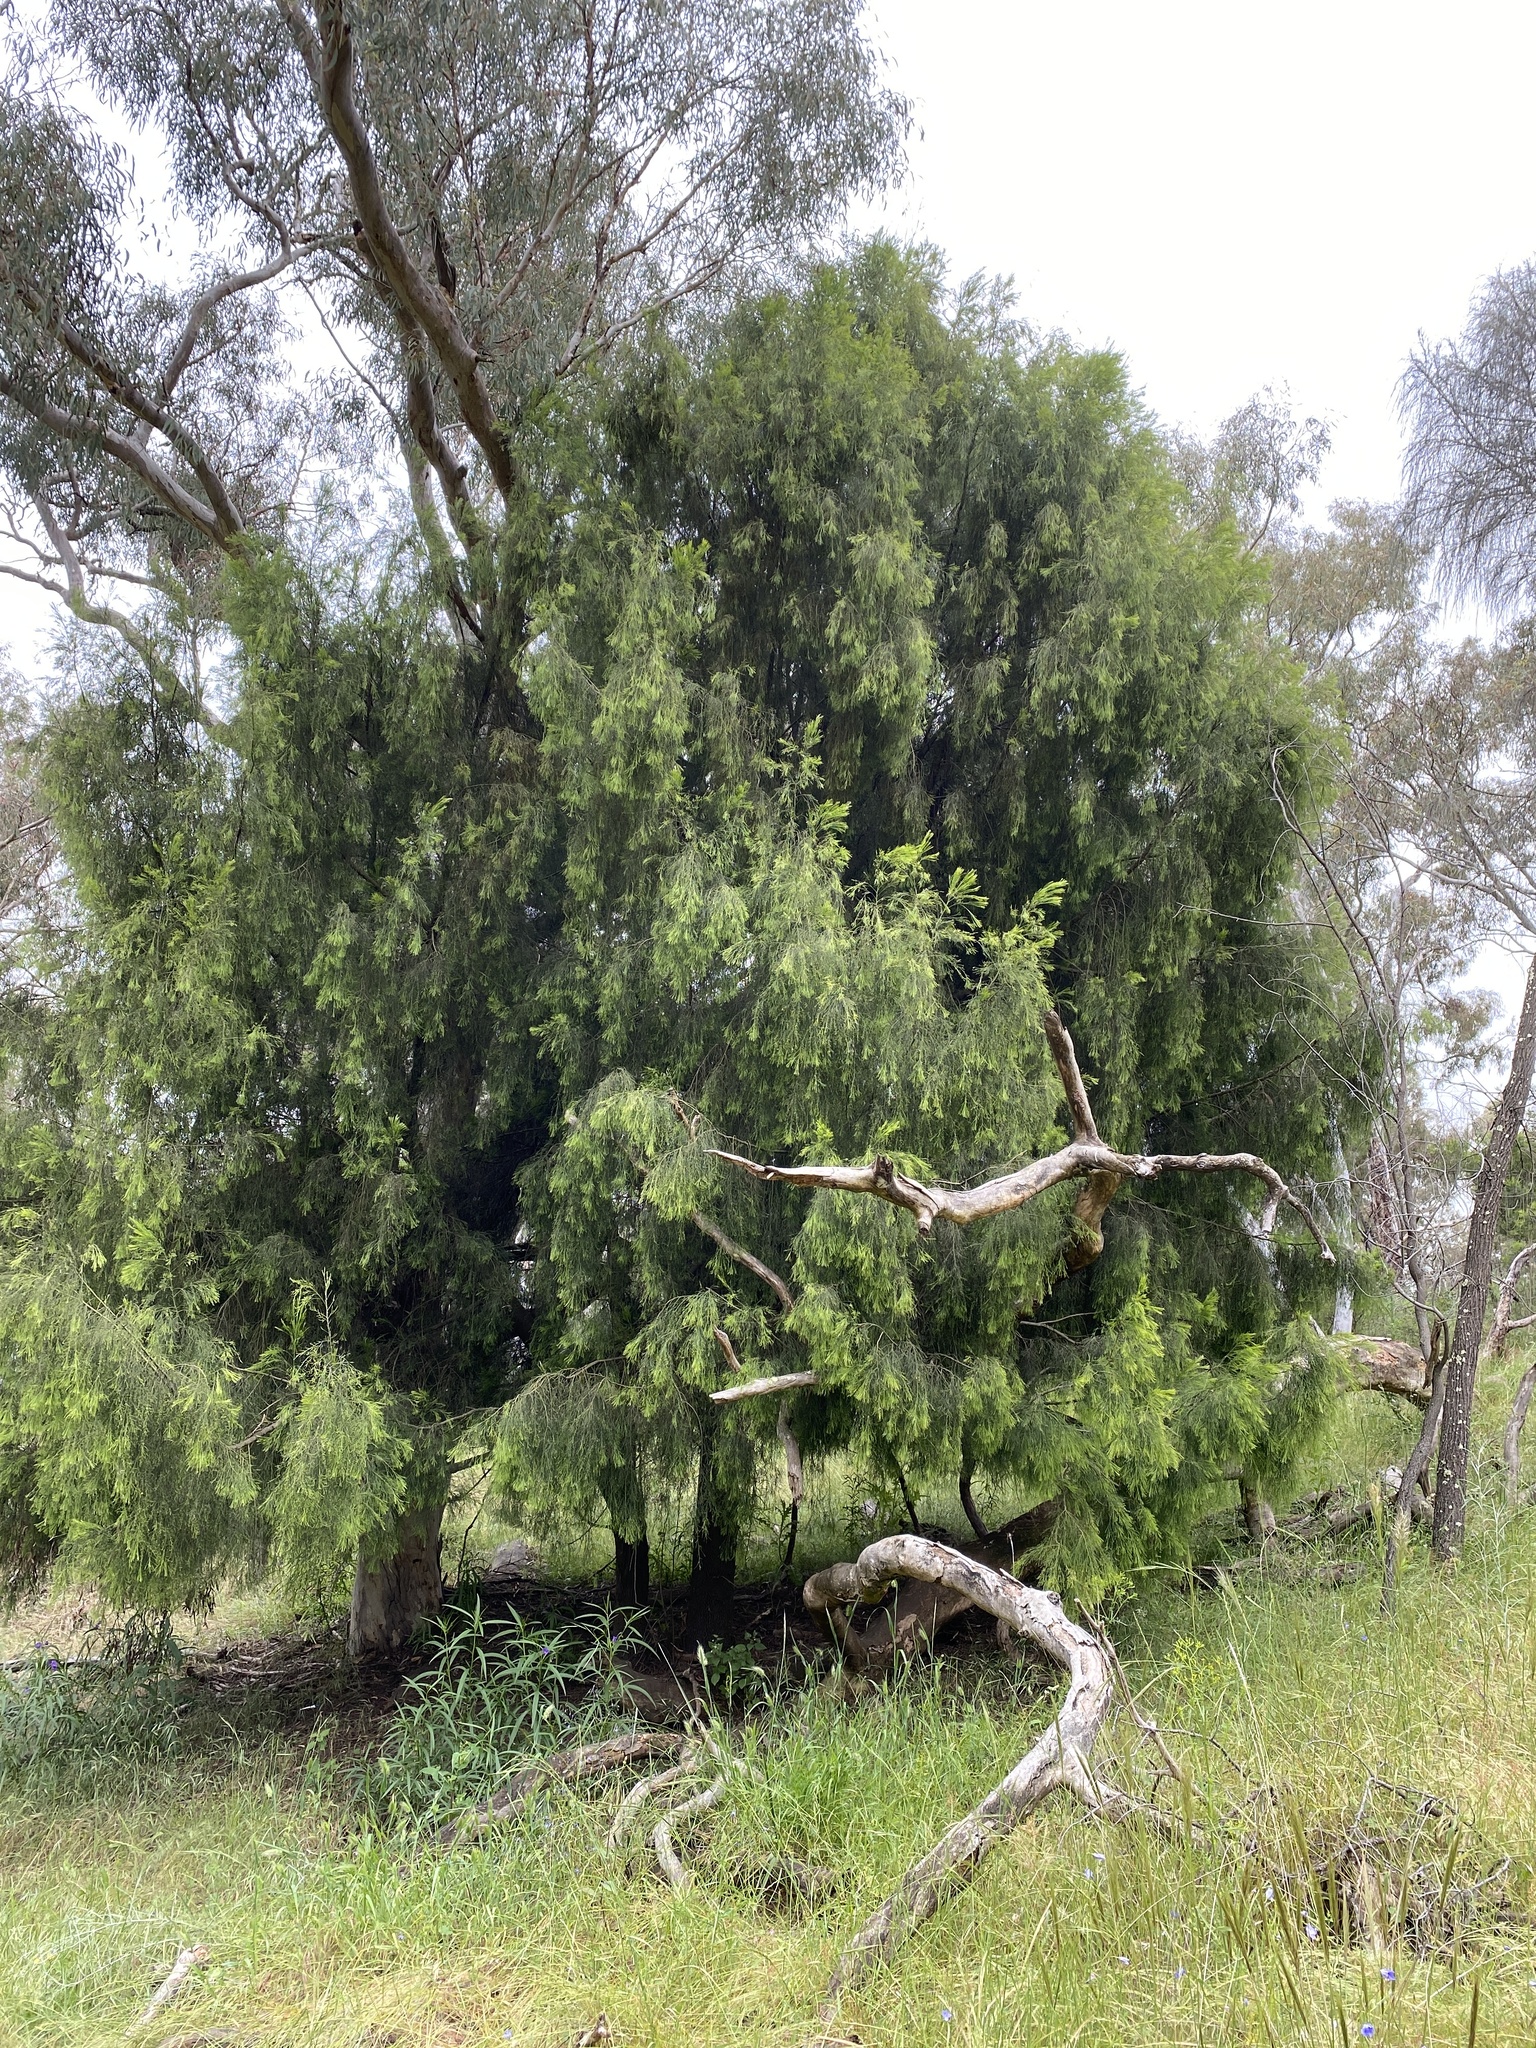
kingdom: Plantae
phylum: Tracheophyta
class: Magnoliopsida
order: Santalales
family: Santalaceae
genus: Exocarpos
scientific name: Exocarpos cupressiformis
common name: Cherry ballart
